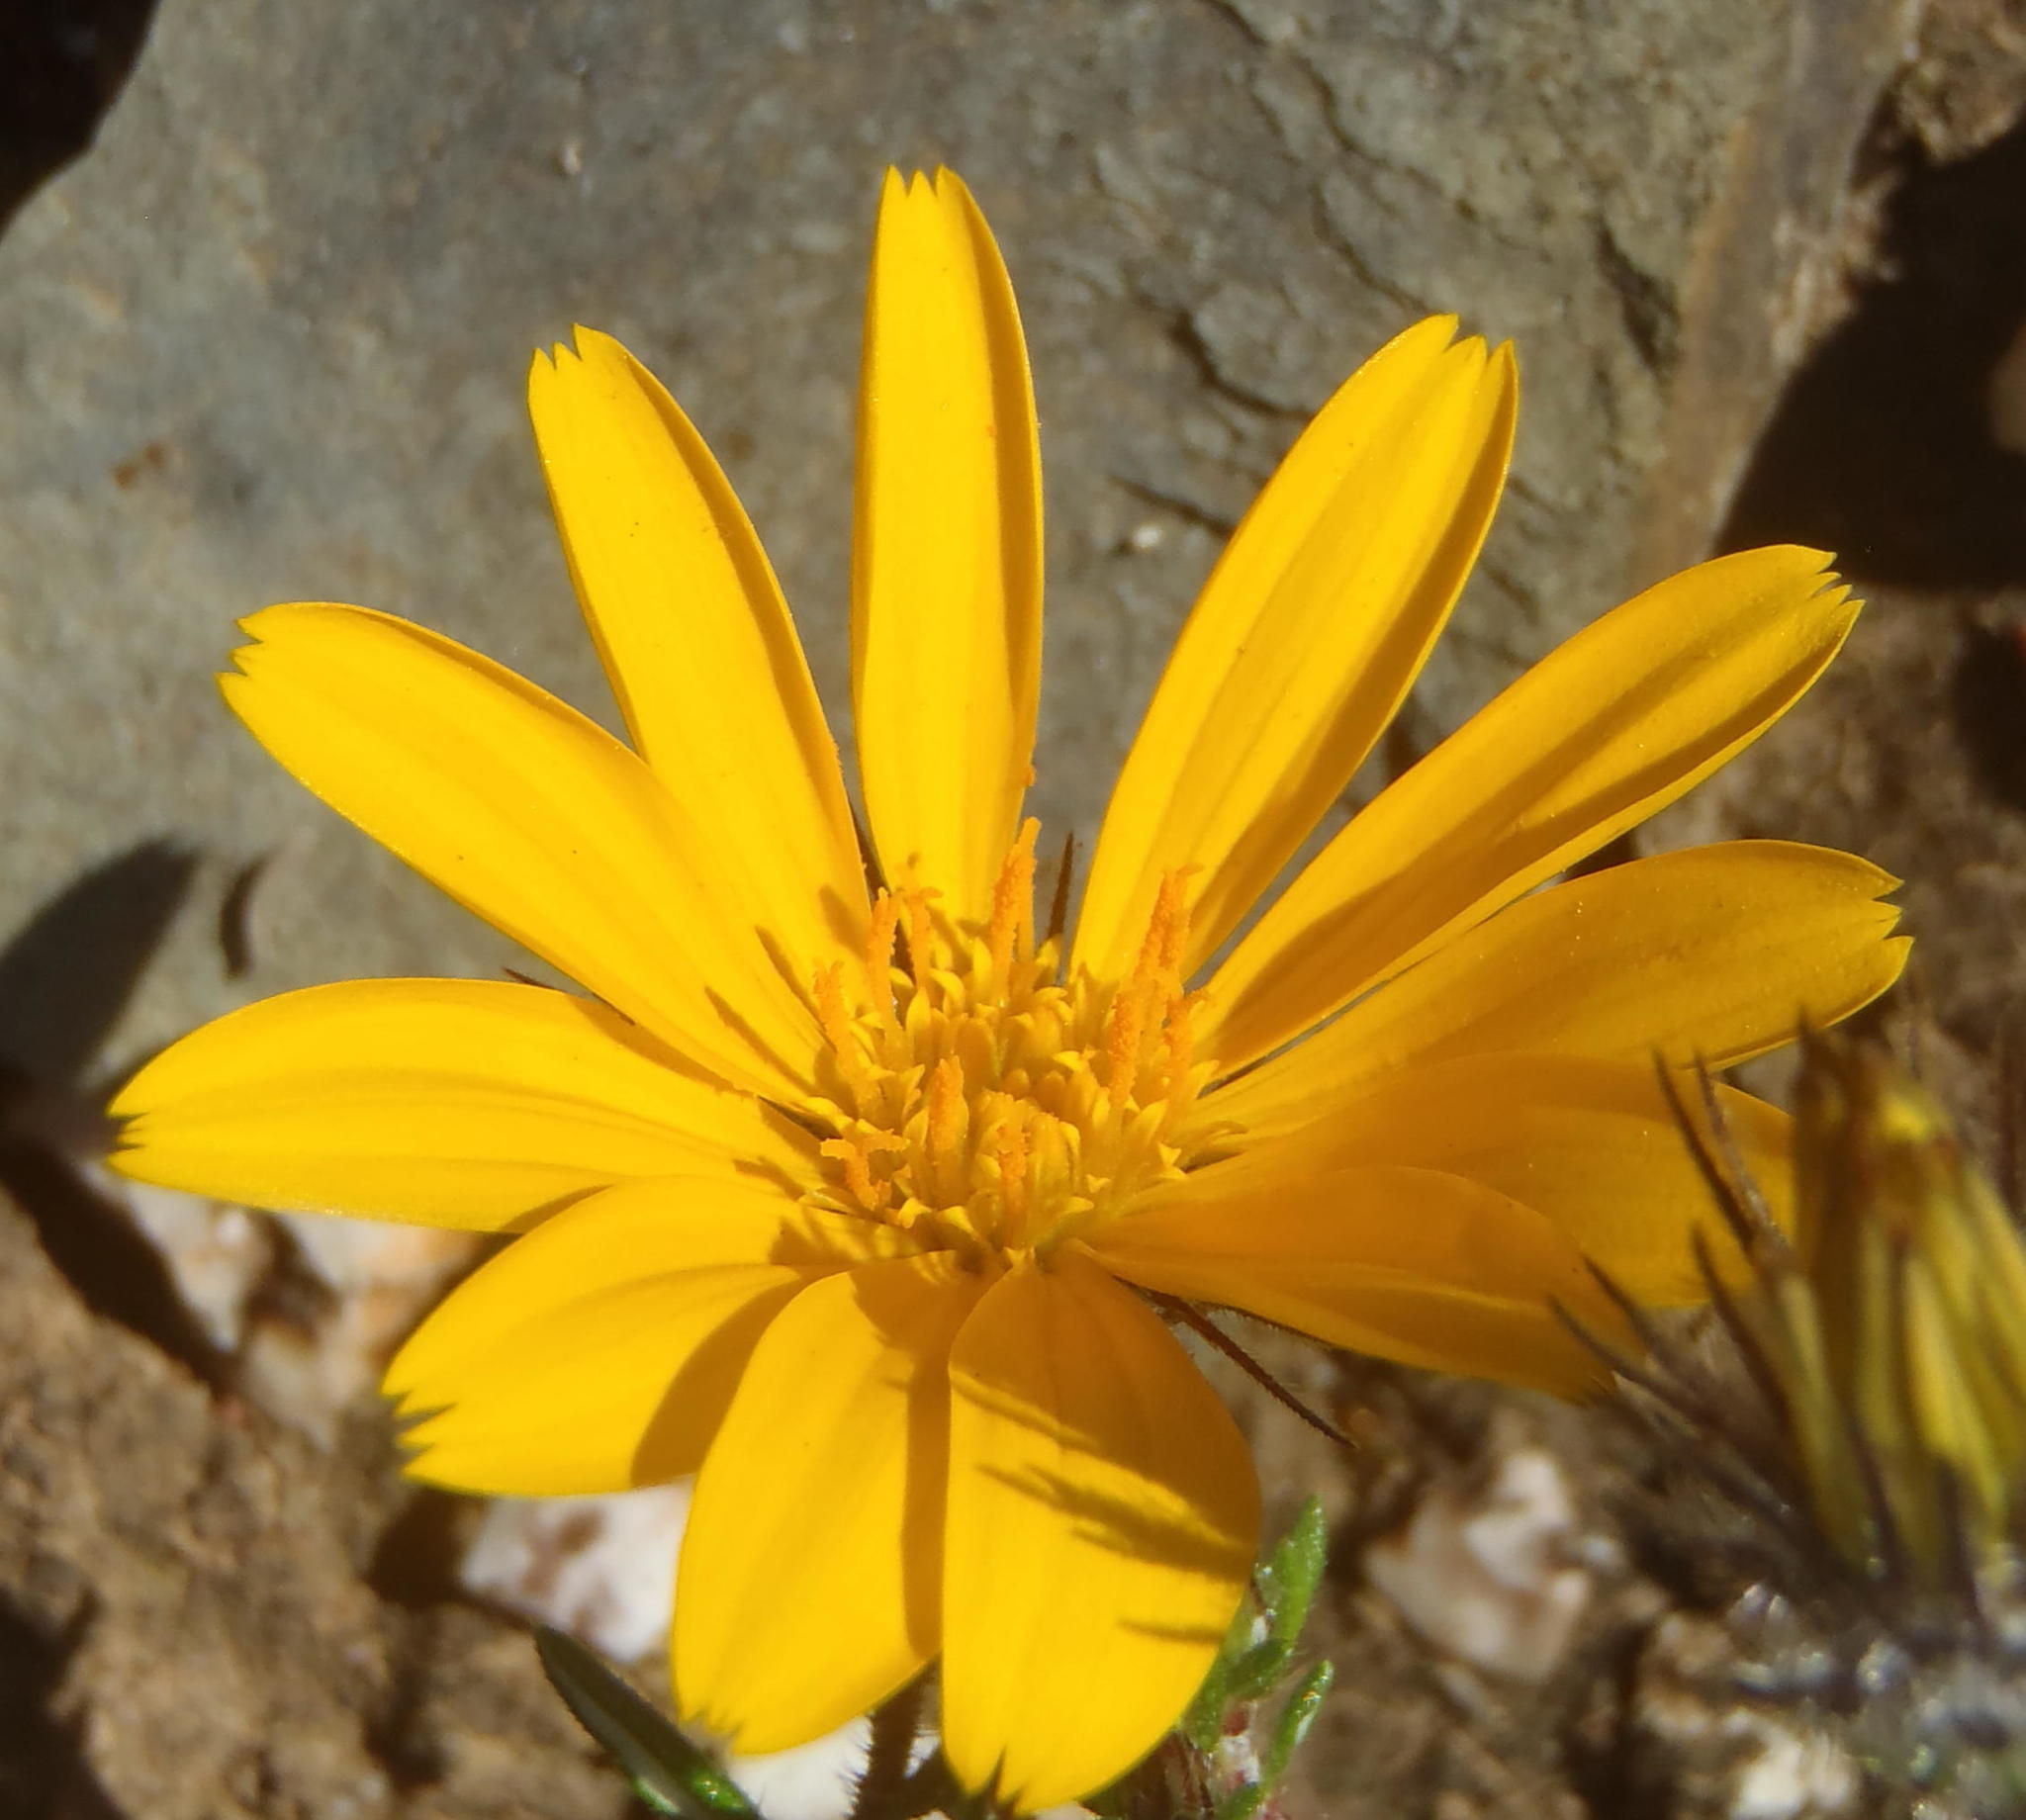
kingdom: Plantae
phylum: Tracheophyta
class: Magnoliopsida
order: Asterales
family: Asteraceae
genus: Hirpicium
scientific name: Hirpicium integrifolium
